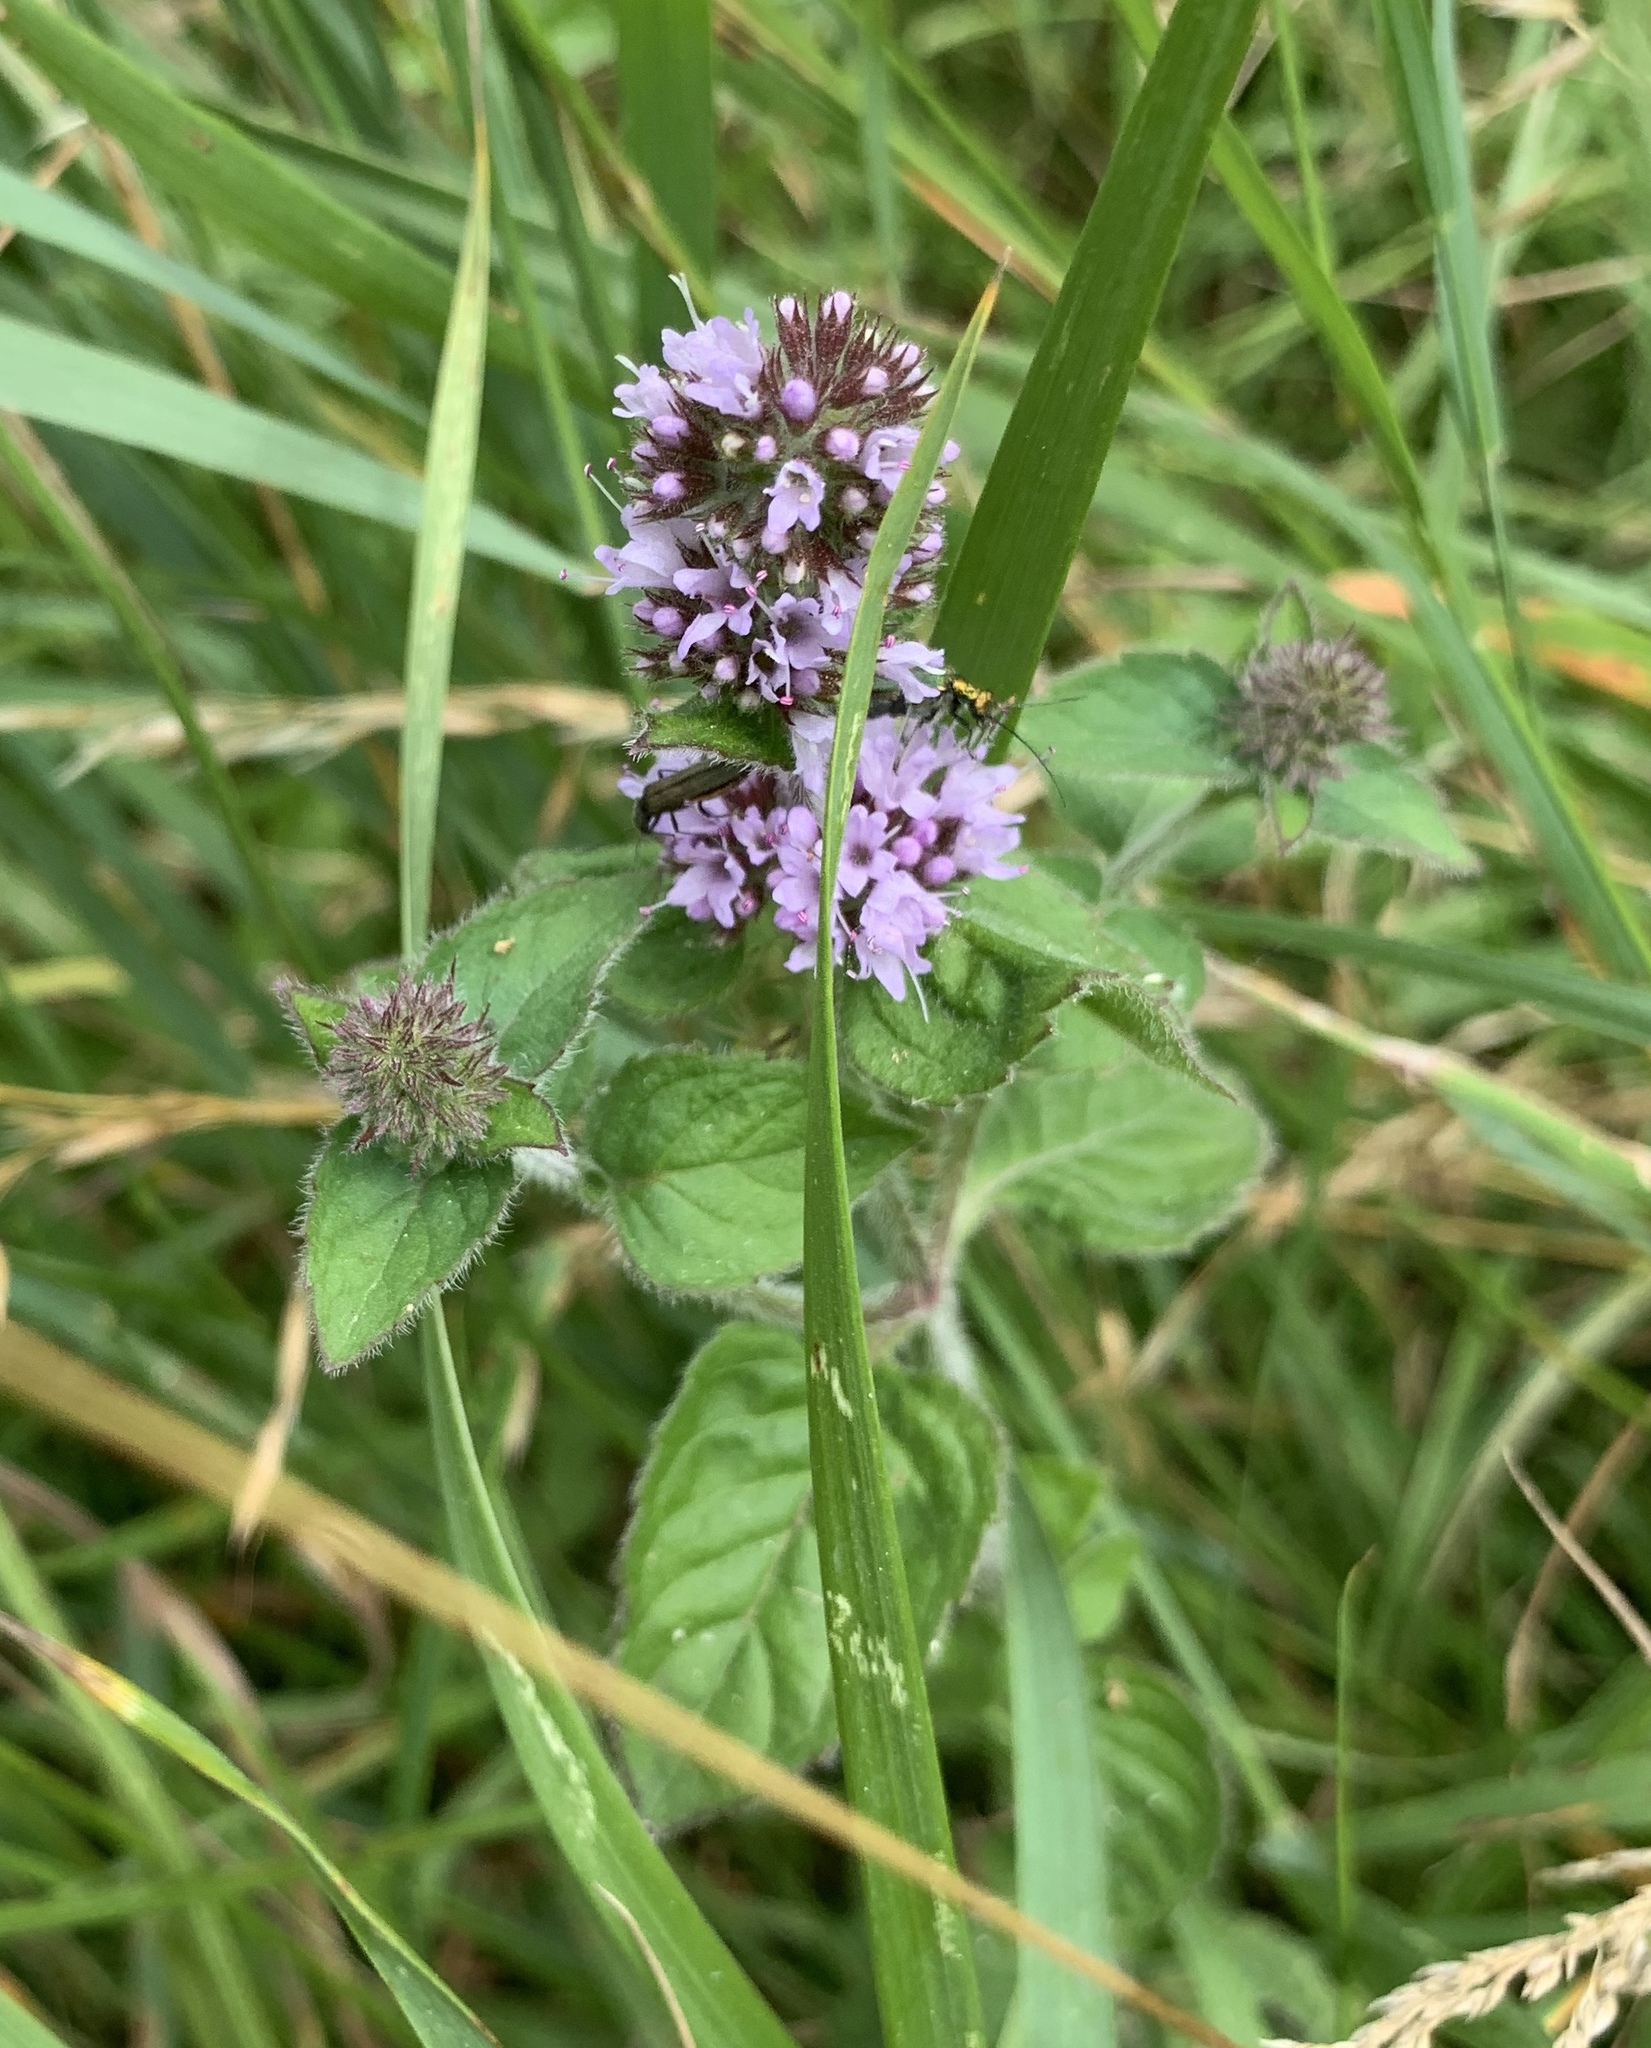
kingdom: Plantae
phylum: Tracheophyta
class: Magnoliopsida
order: Lamiales
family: Lamiaceae
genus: Mentha
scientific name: Mentha aquatica
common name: Water mint
